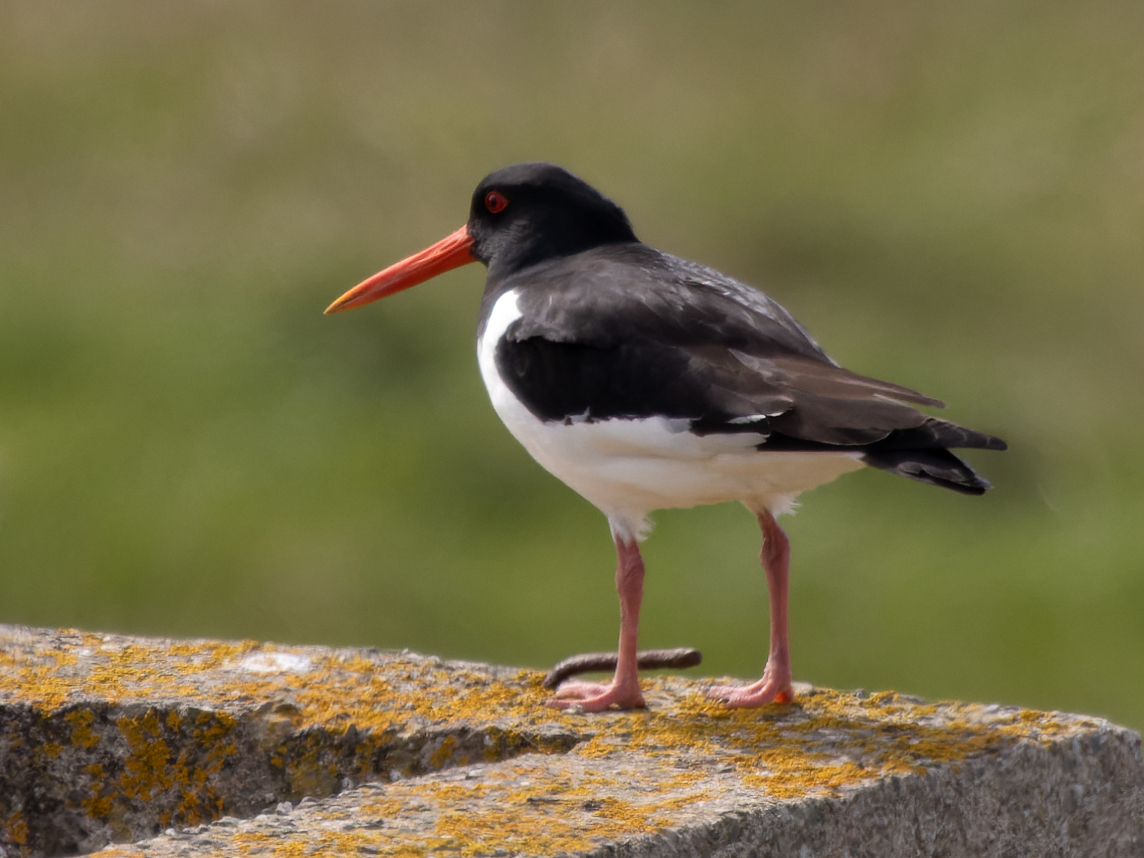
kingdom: Animalia
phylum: Chordata
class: Aves
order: Charadriiformes
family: Haematopodidae
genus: Haematopus
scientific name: Haematopus ostralegus
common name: Eurasian oystercatcher
